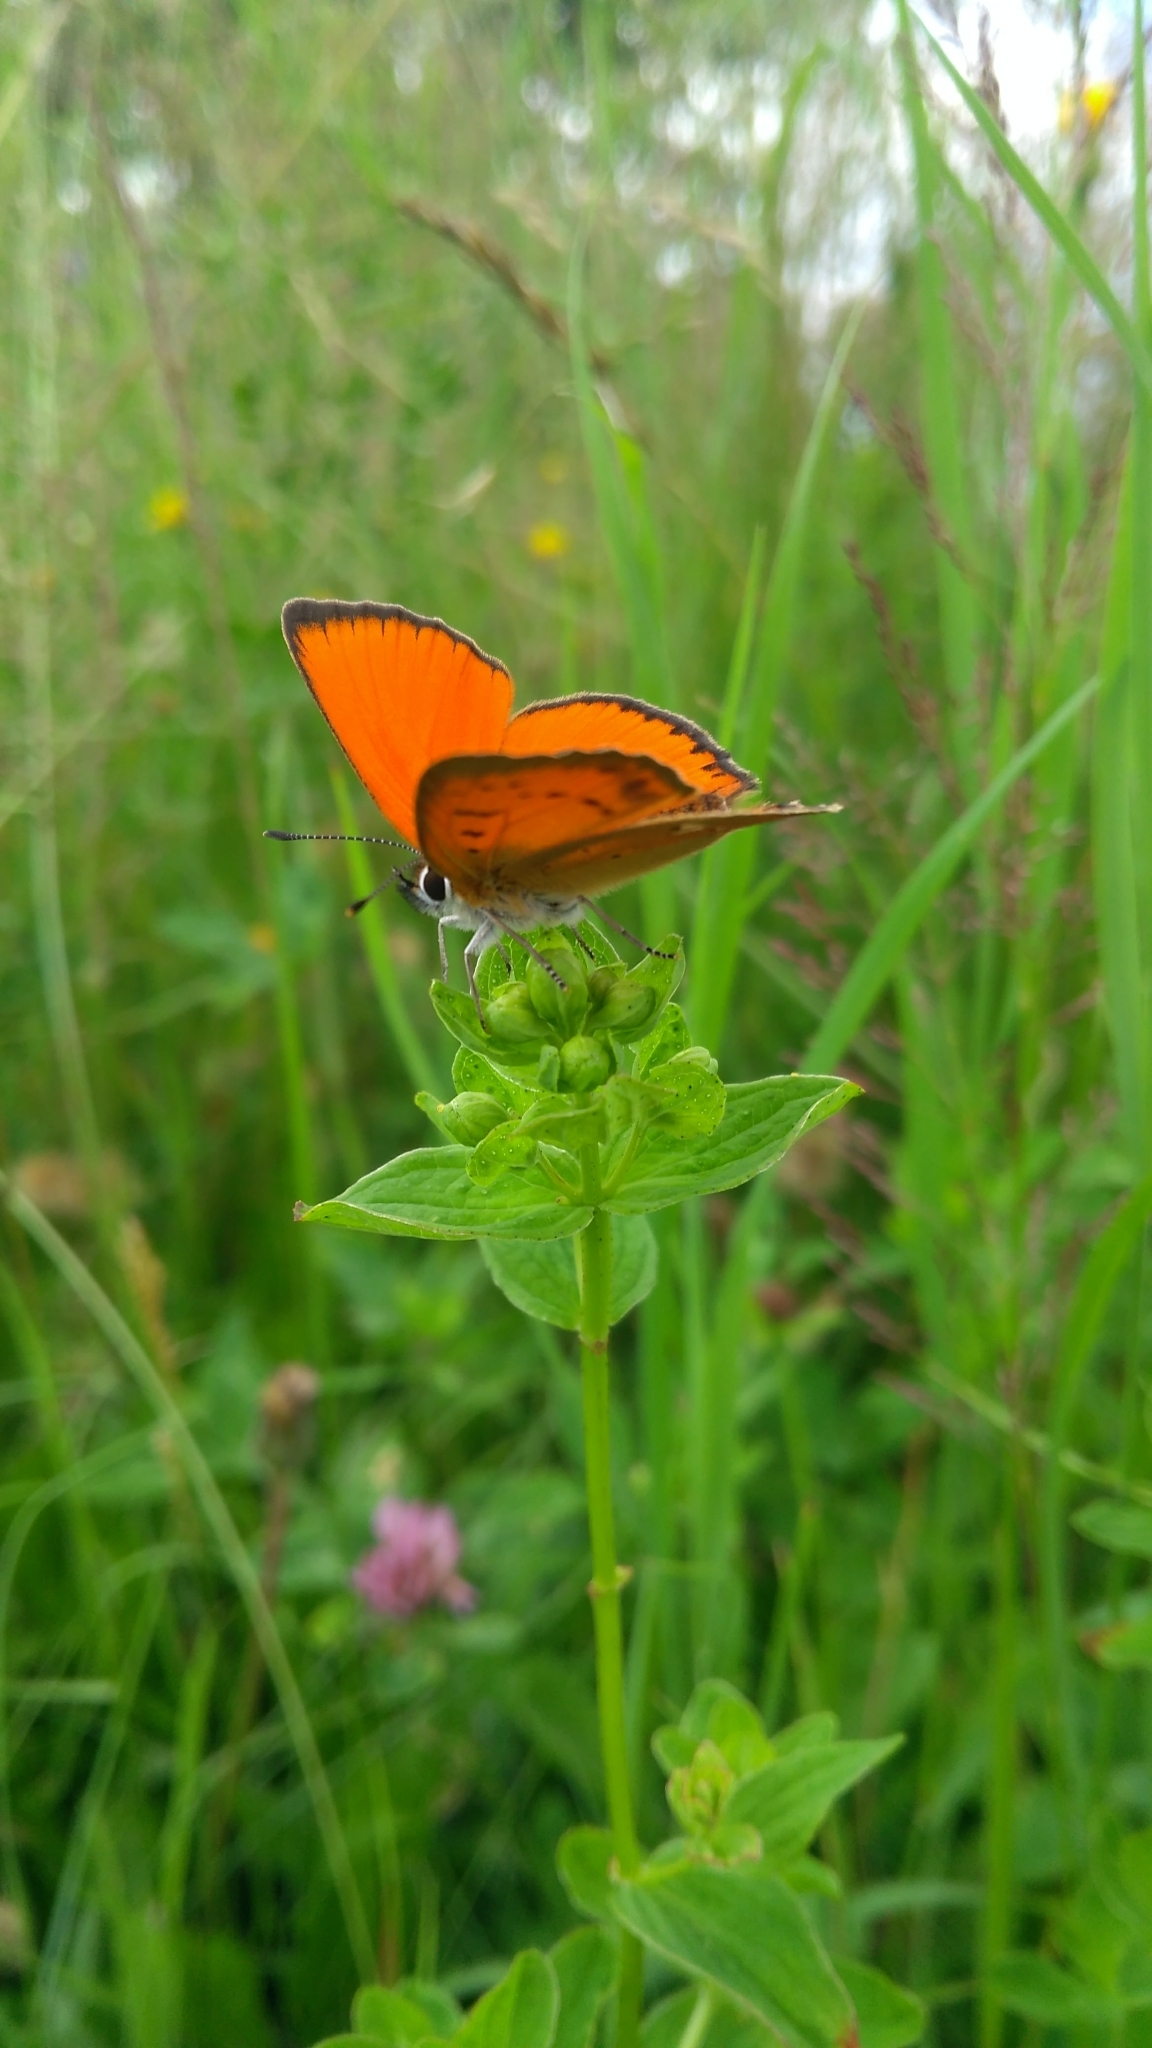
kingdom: Animalia
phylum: Arthropoda
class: Insecta
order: Lepidoptera
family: Lycaenidae
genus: Lycaena
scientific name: Lycaena virgaureae
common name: Scarce copper
